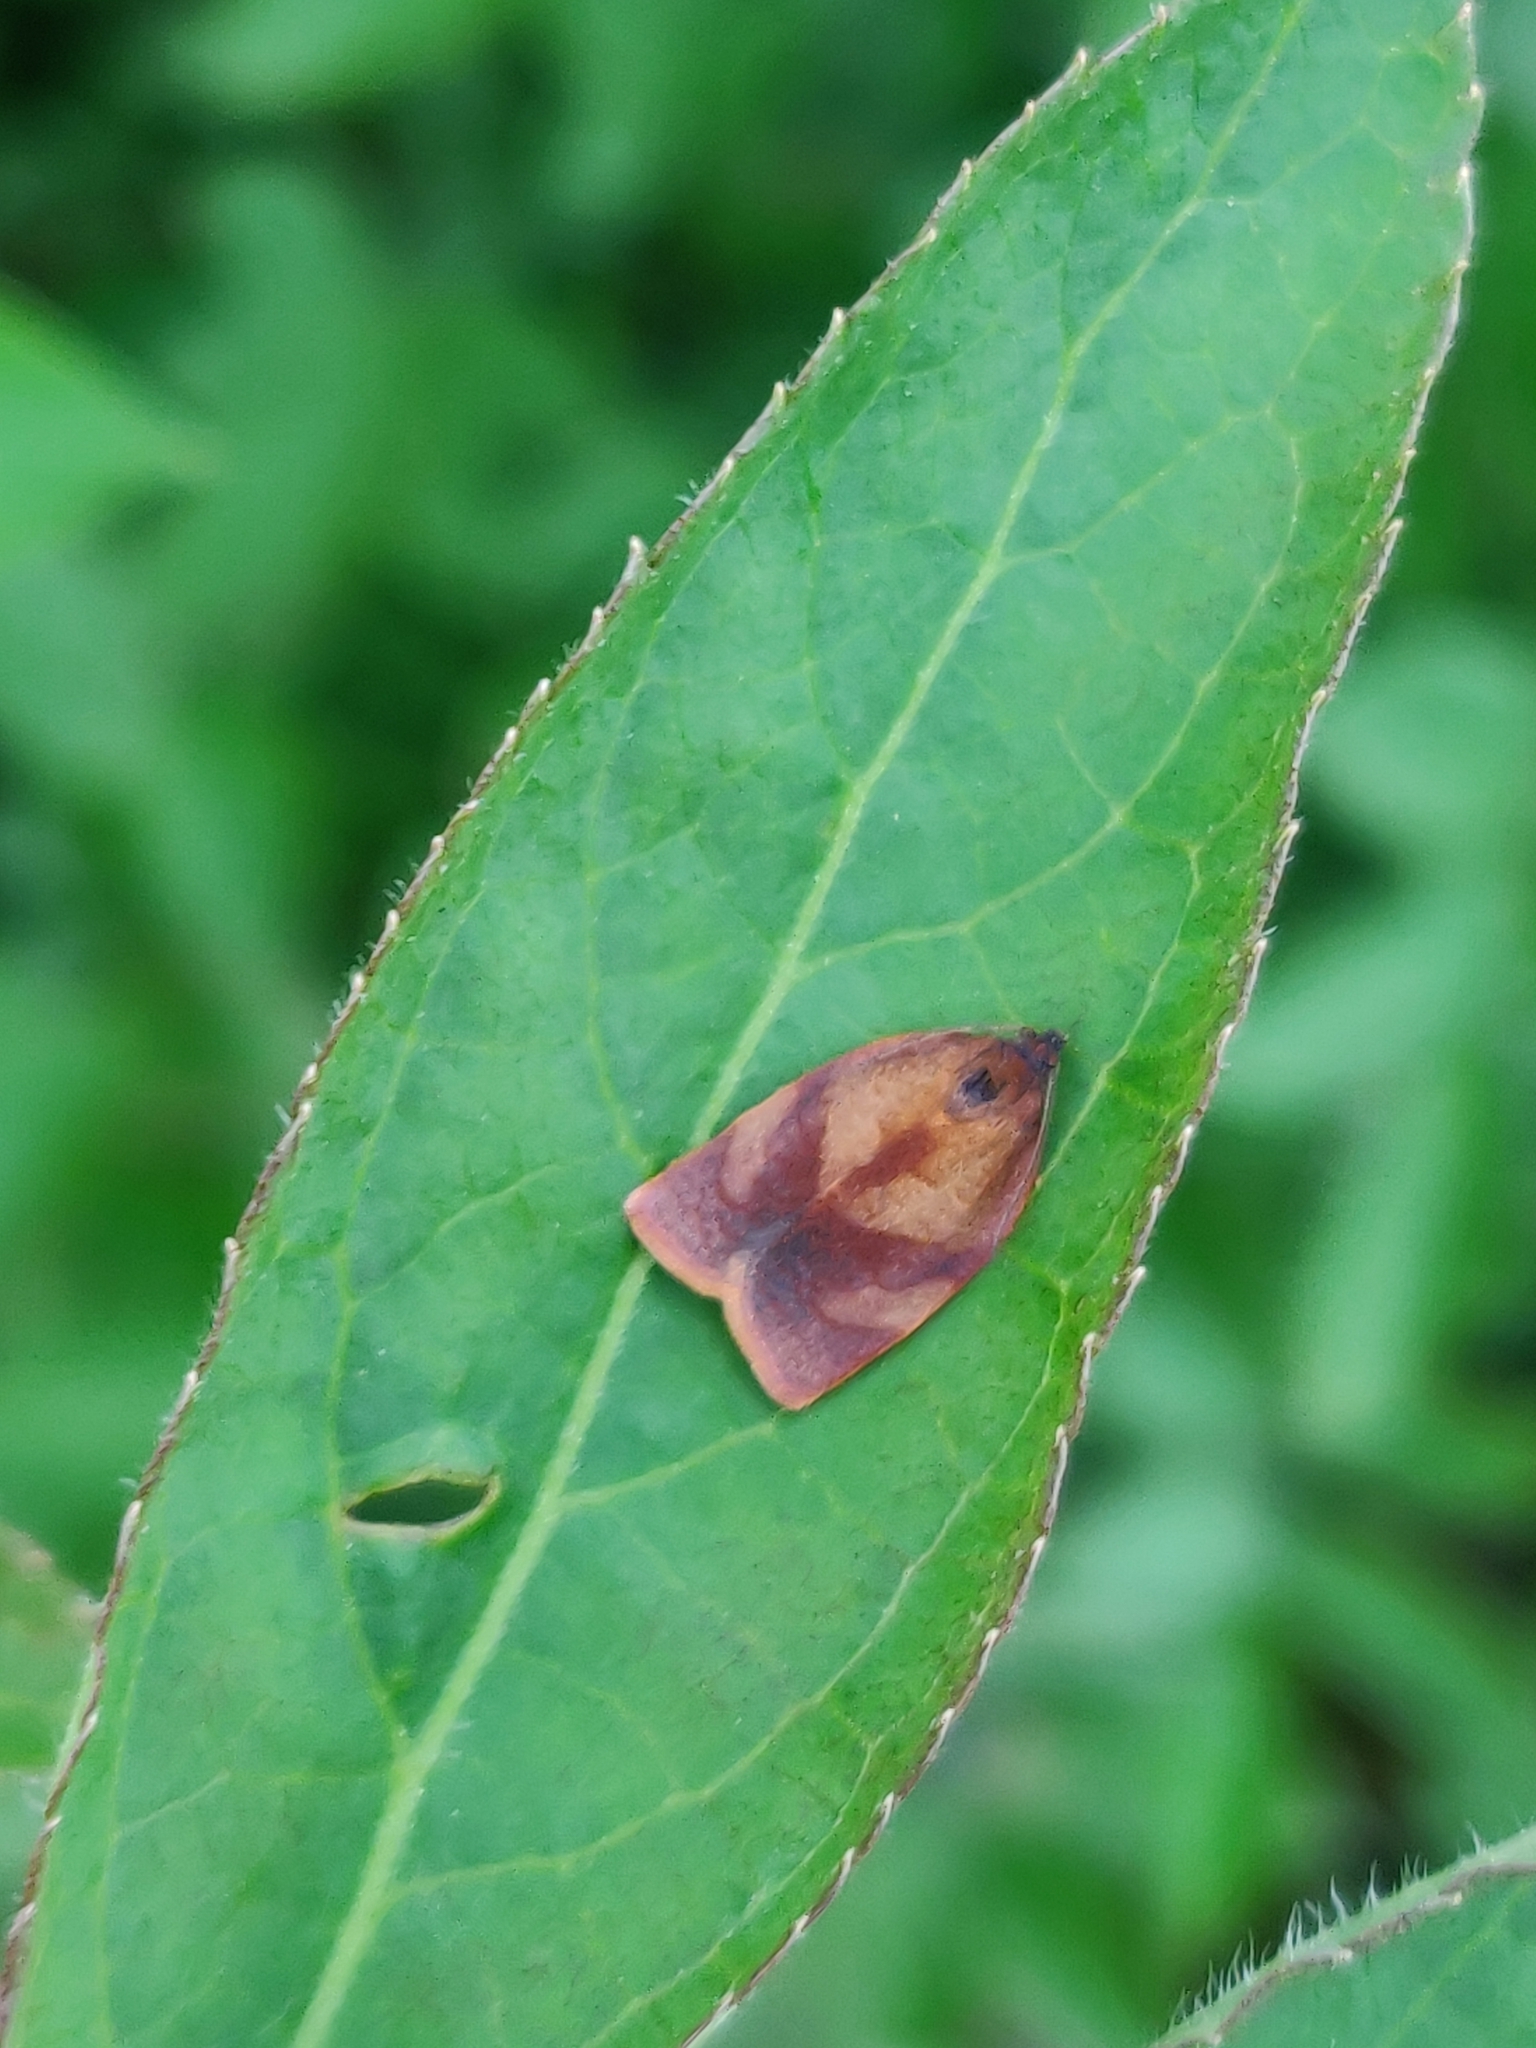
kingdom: Animalia
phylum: Arthropoda
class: Insecta
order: Lepidoptera
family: Tortricidae
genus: Cacoecimorpha
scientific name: Cacoecimorpha pronubana
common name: Carnation tortrix
